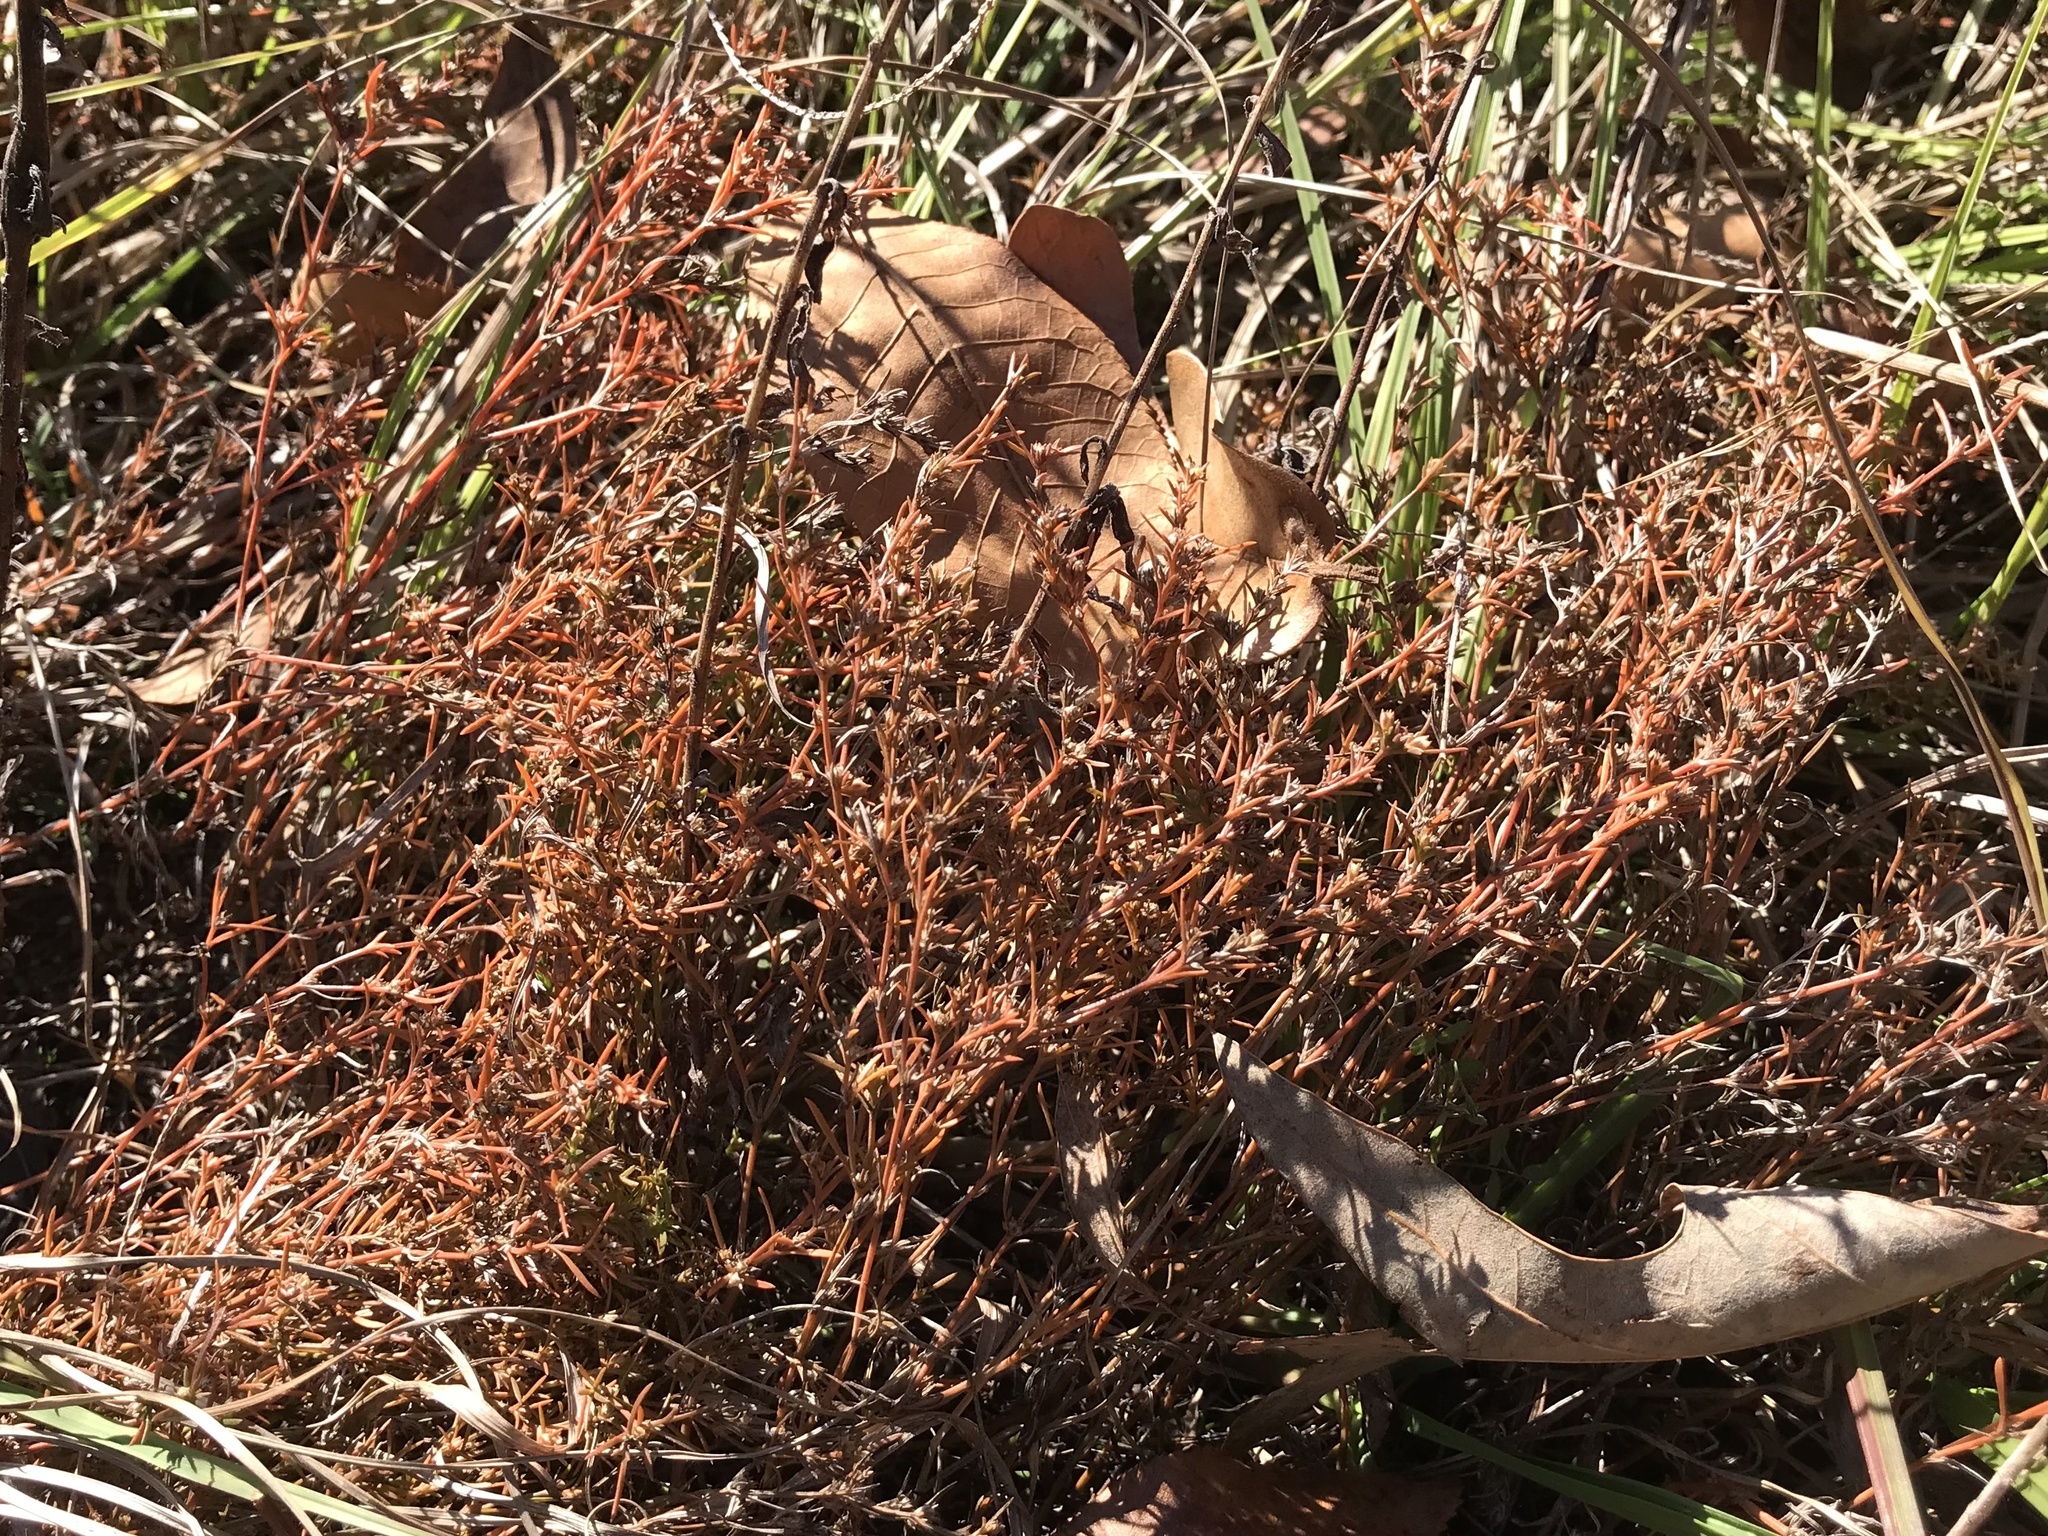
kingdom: Plantae
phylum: Tracheophyta
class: Magnoliopsida
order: Lamiales
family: Tetrachondraceae
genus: Polypremum
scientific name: Polypremum procumbens
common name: Juniper-leaf
